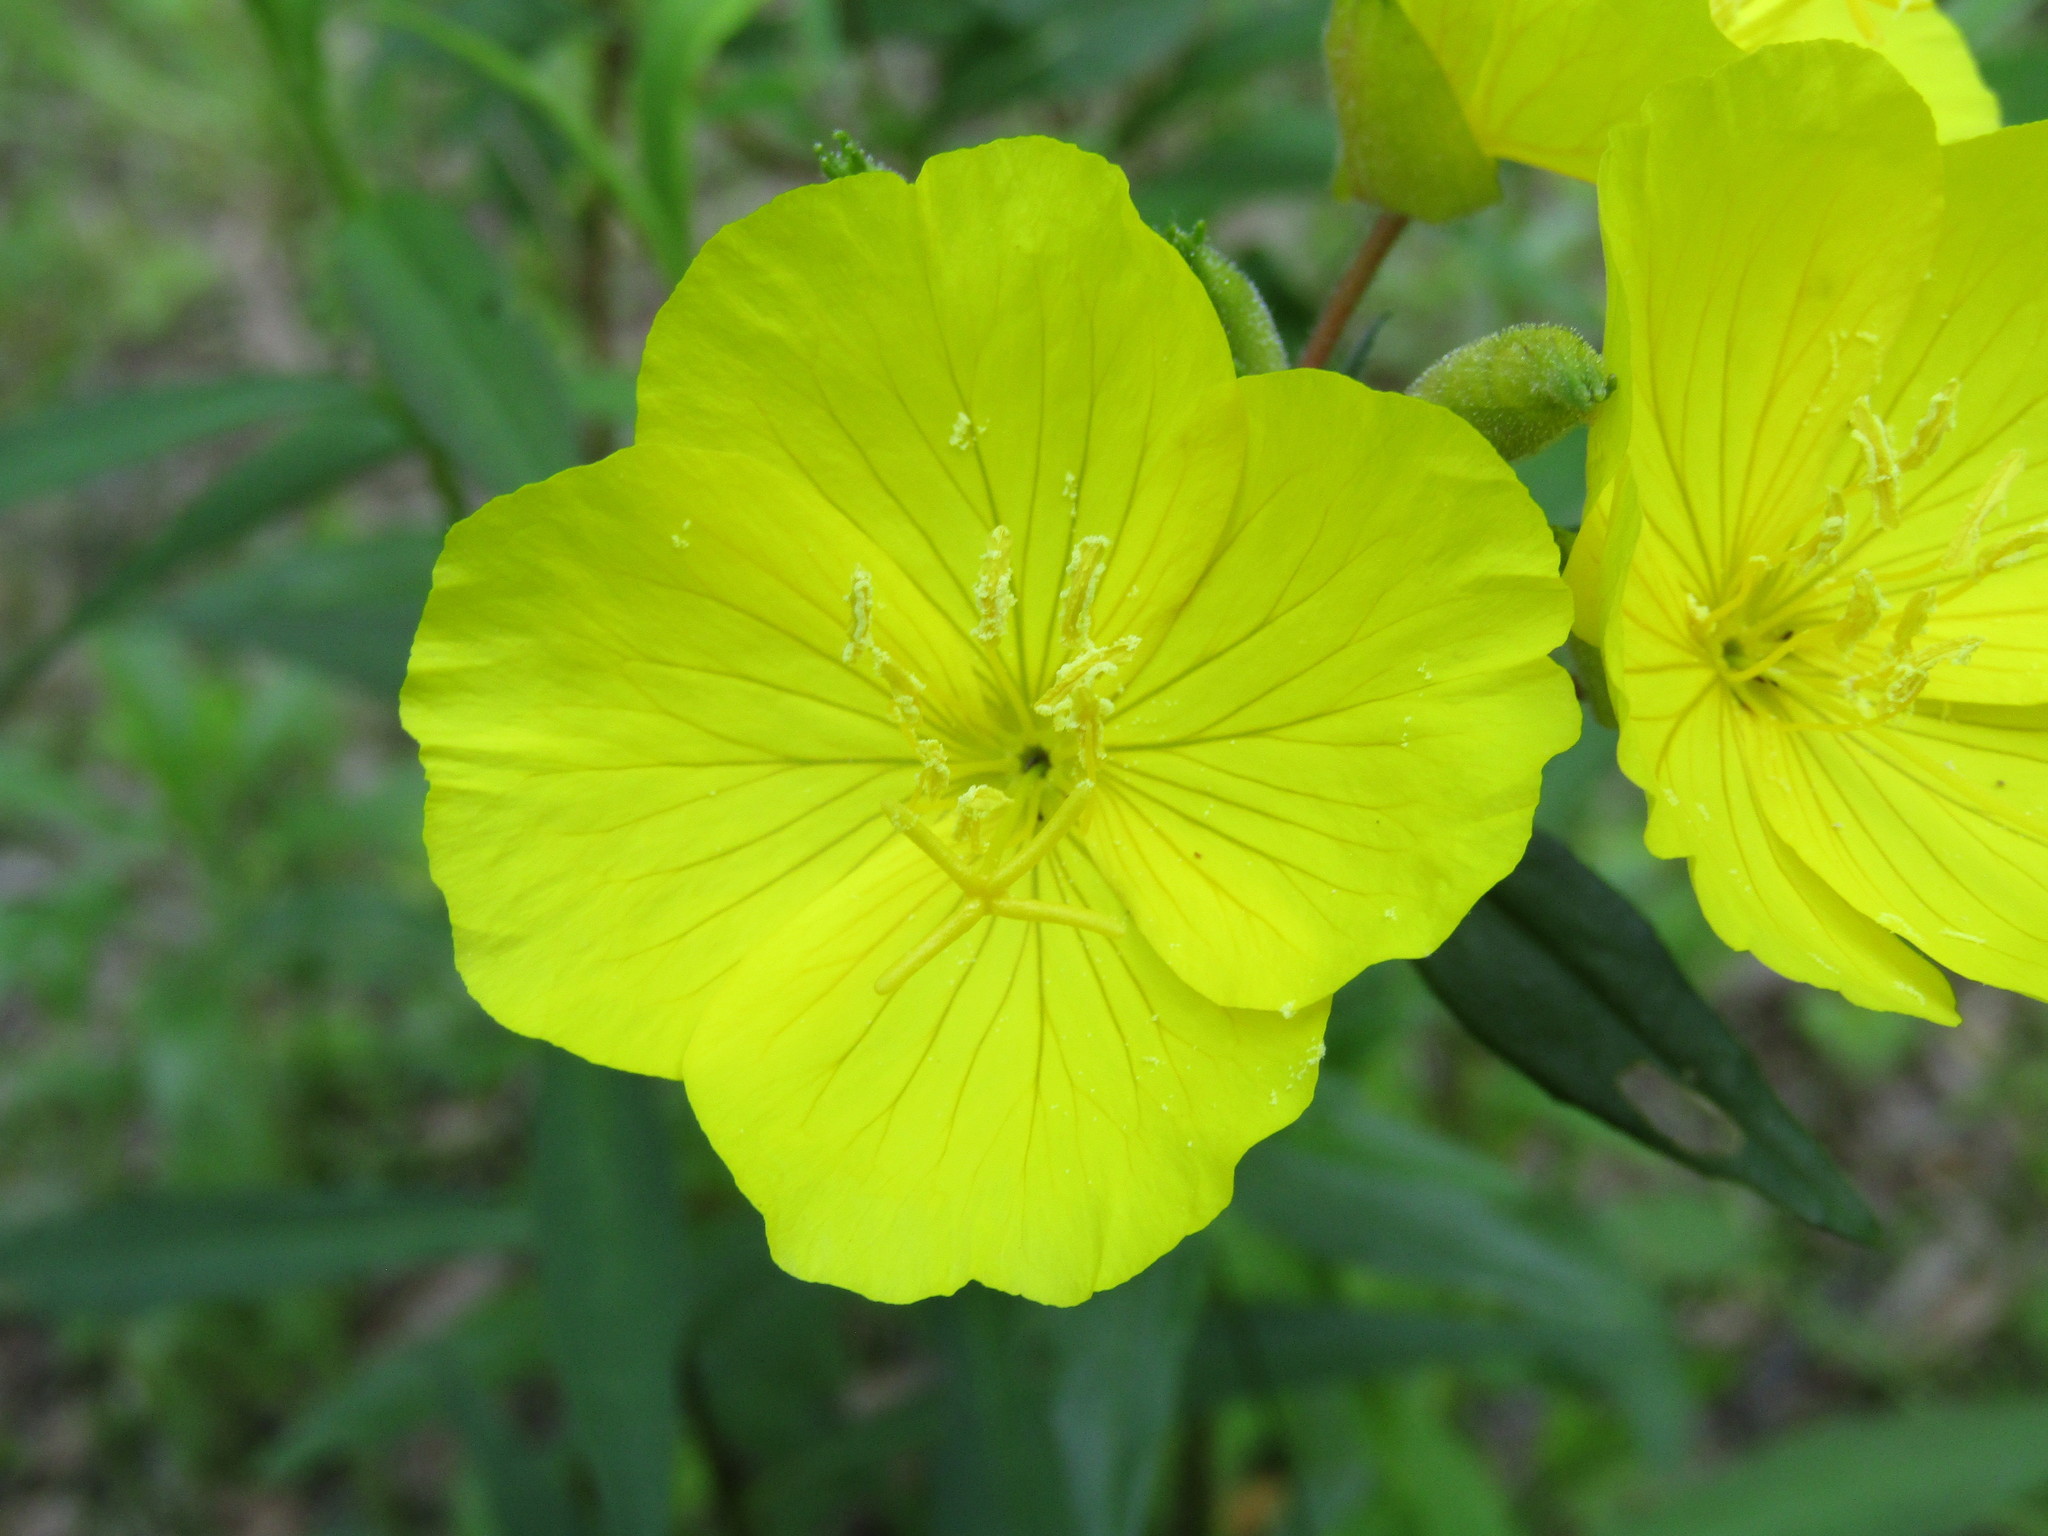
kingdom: Plantae
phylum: Tracheophyta
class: Magnoliopsida
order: Myrtales
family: Onagraceae
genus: Oenothera
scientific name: Oenothera fruticosa
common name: Southern sundrops
